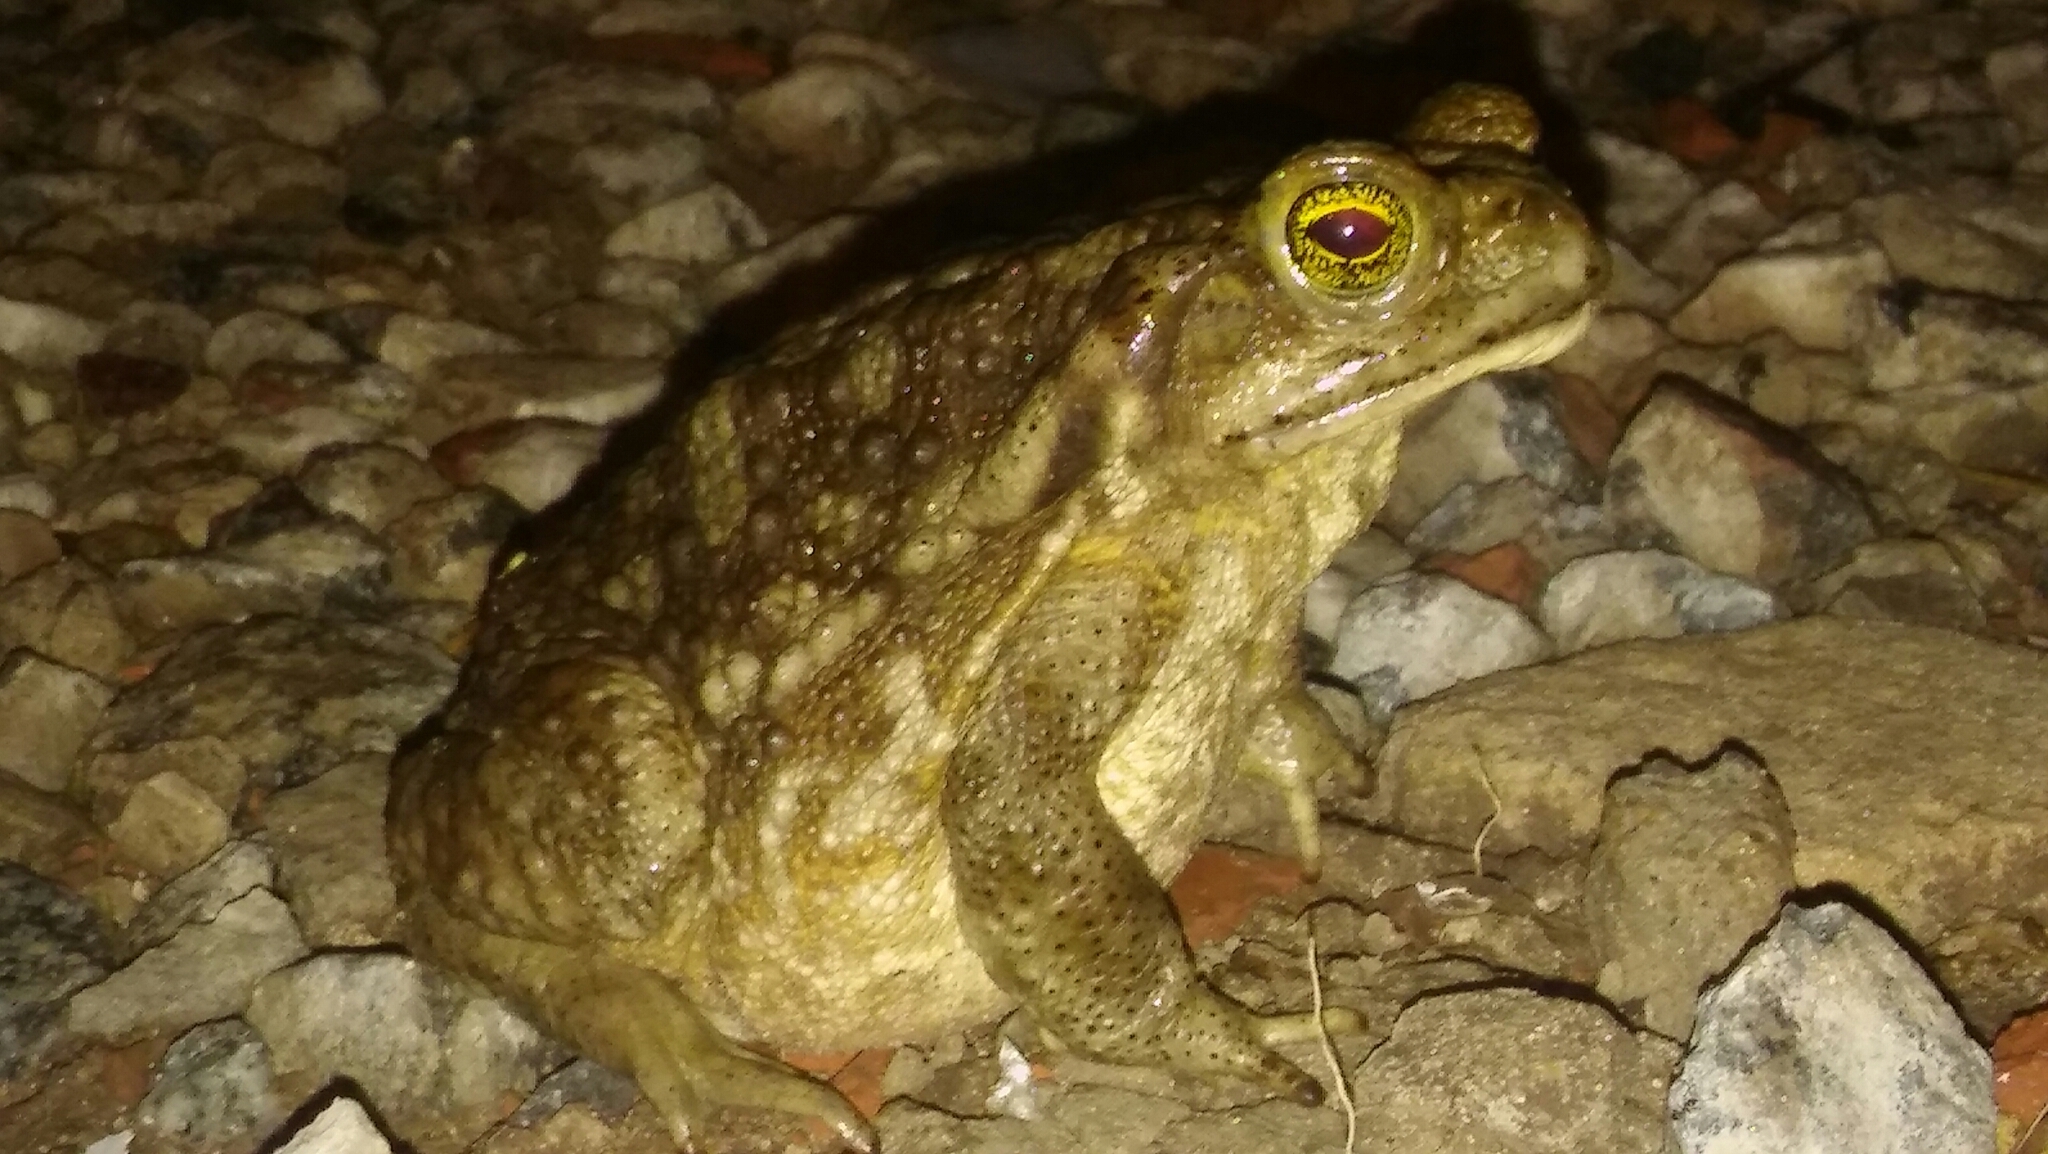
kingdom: Animalia
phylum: Chordata
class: Amphibia
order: Anura
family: Bufonidae
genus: Rhinella
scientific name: Rhinella arenarum
